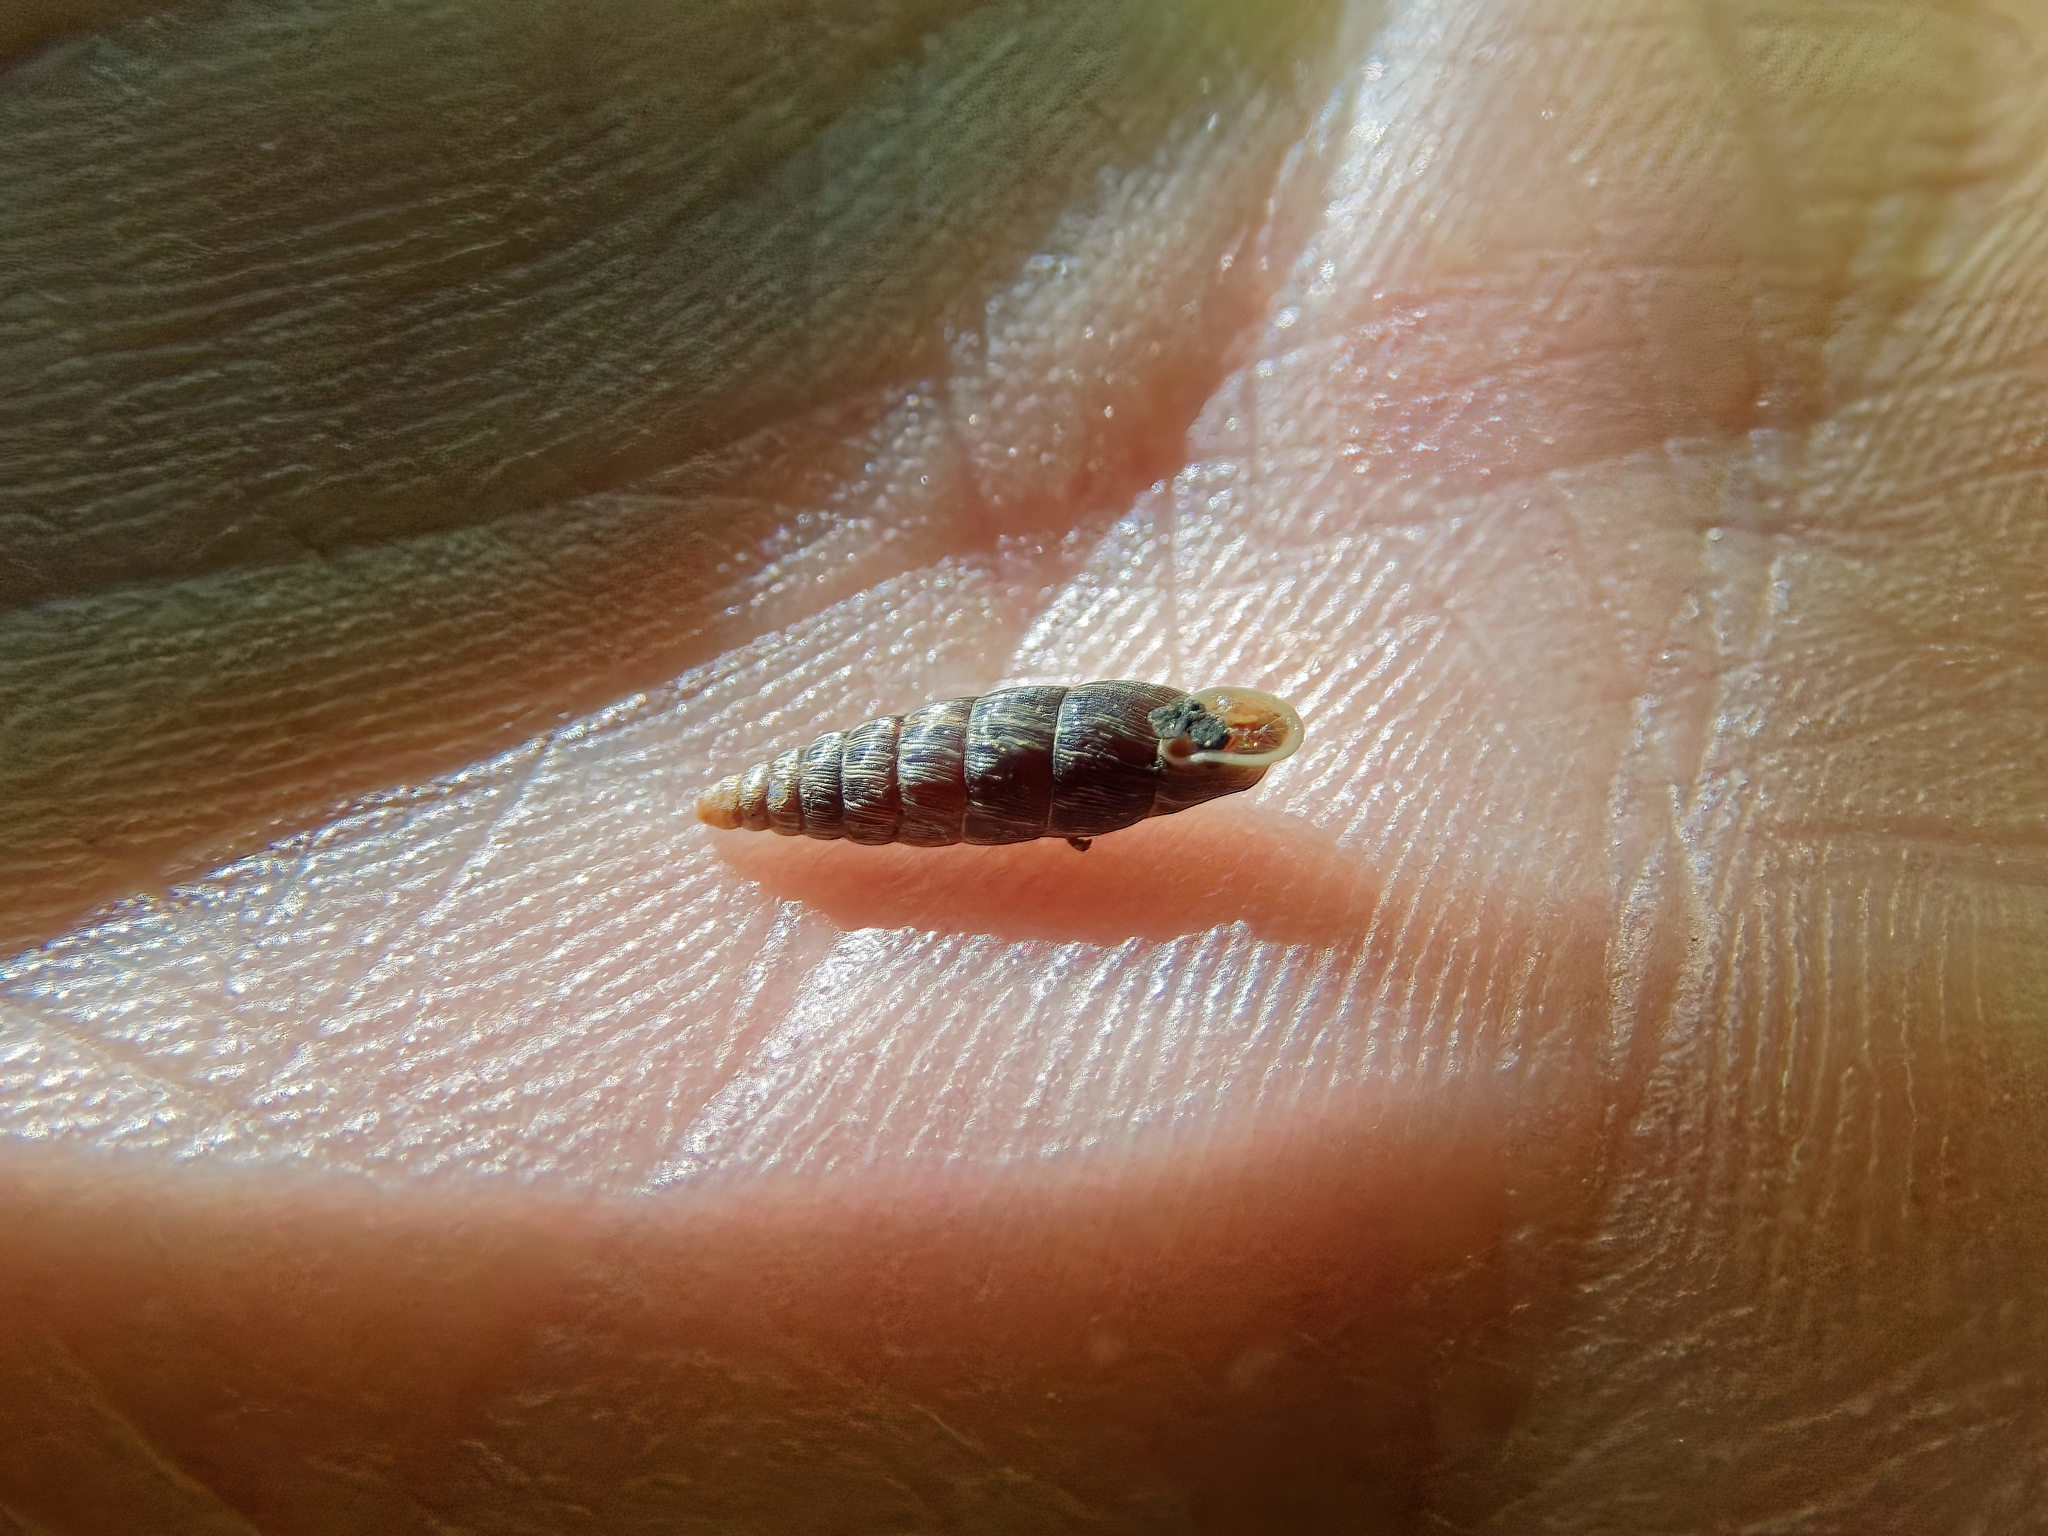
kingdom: Animalia
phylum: Mollusca
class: Gastropoda
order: Stylommatophora
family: Clausiliidae
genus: Clausilia
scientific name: Clausilia bidentata
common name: Two-toothed door snail
